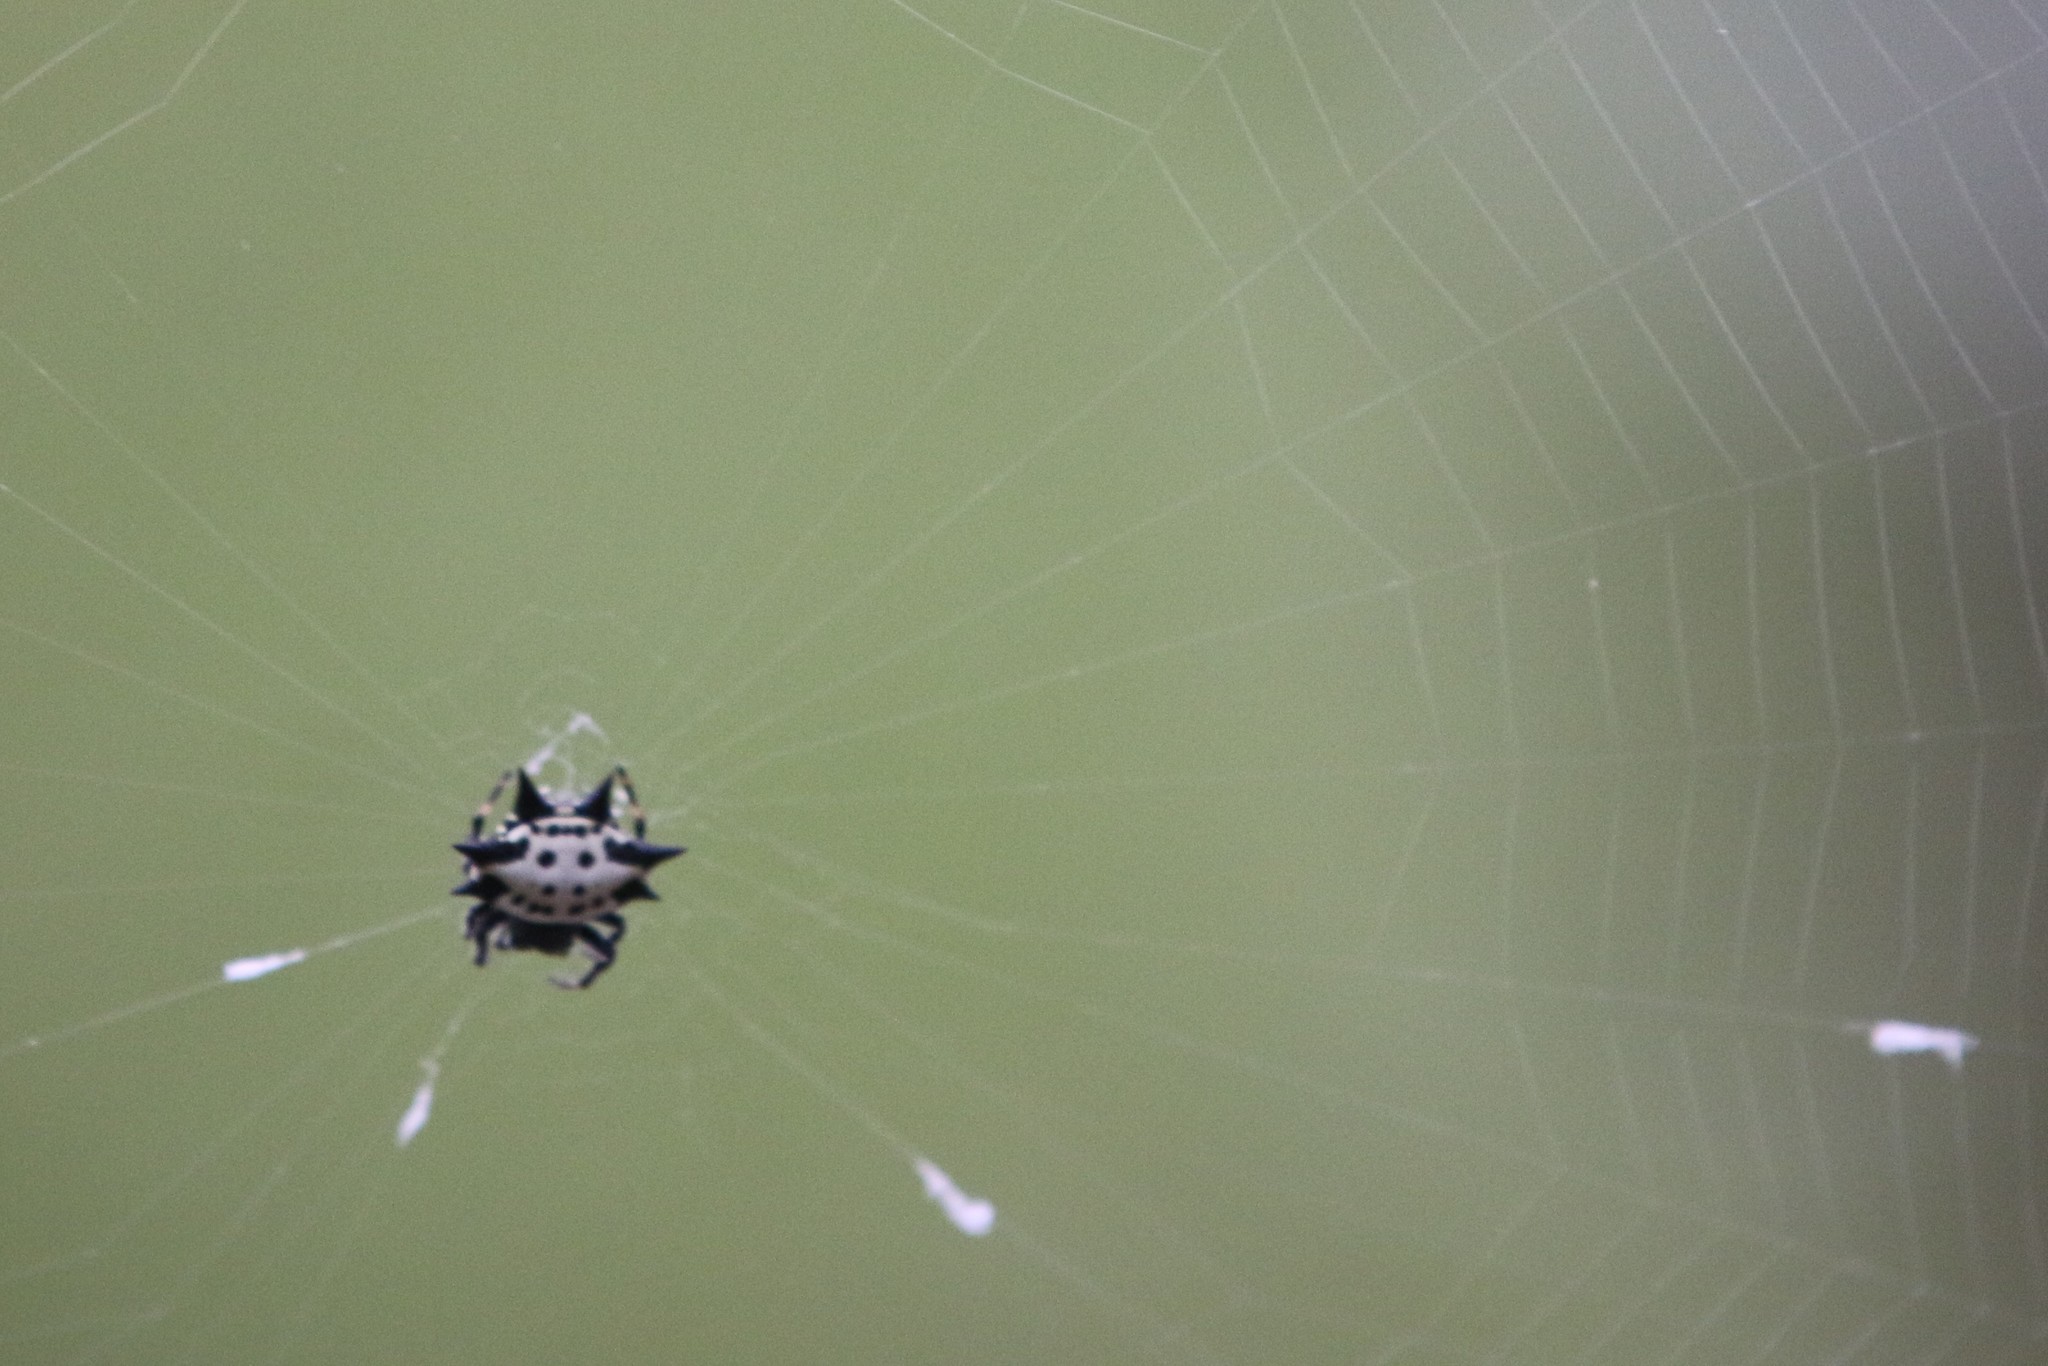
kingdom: Animalia
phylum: Arthropoda
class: Arachnida
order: Araneae
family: Araneidae
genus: Gasteracantha
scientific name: Gasteracantha cancriformis
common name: Orb weavers
